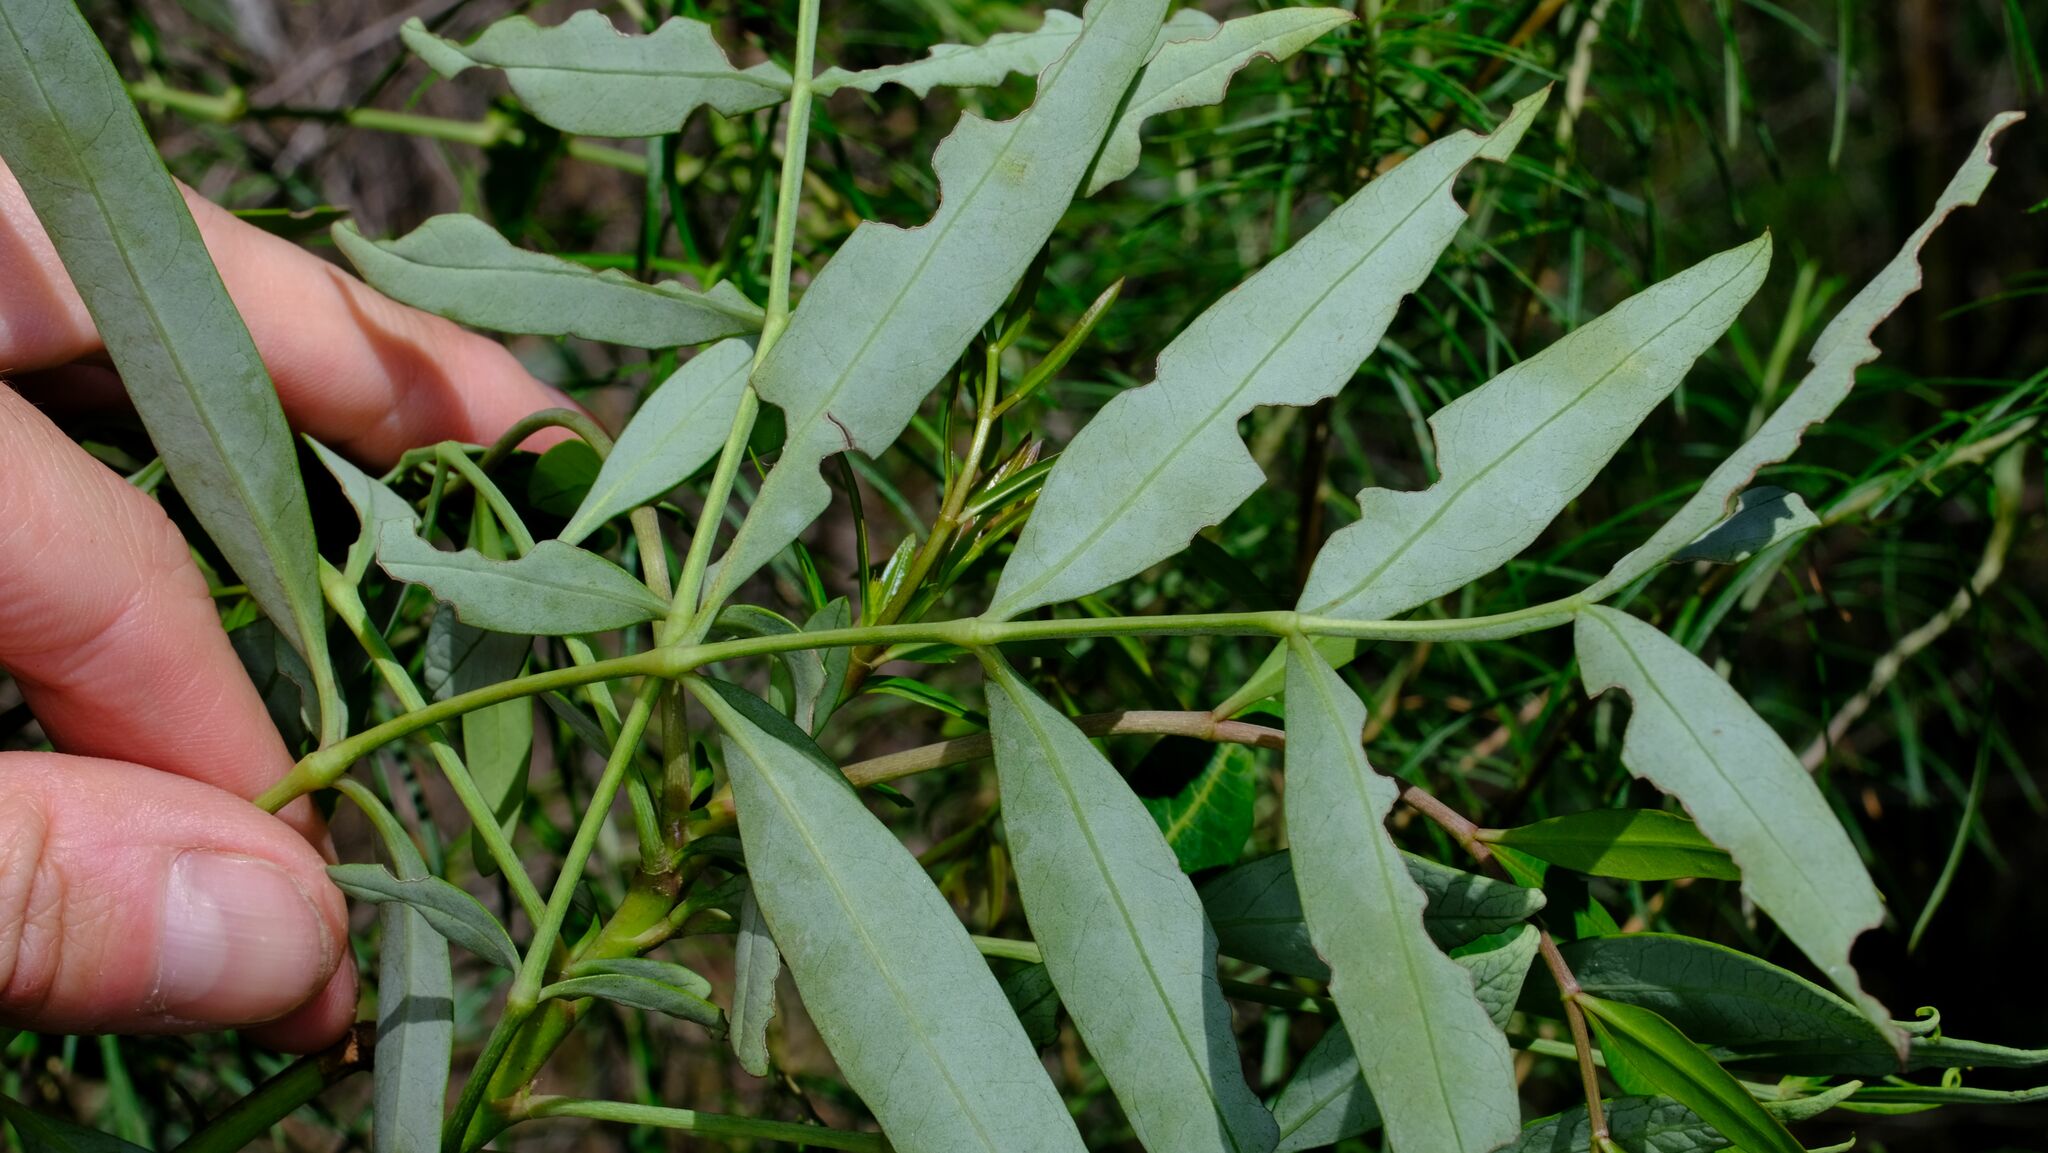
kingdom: Plantae
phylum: Tracheophyta
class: Magnoliopsida
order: Apiales
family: Araliaceae
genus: Polyscias
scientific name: Polyscias sambucifolia
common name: Elderberry-ash
